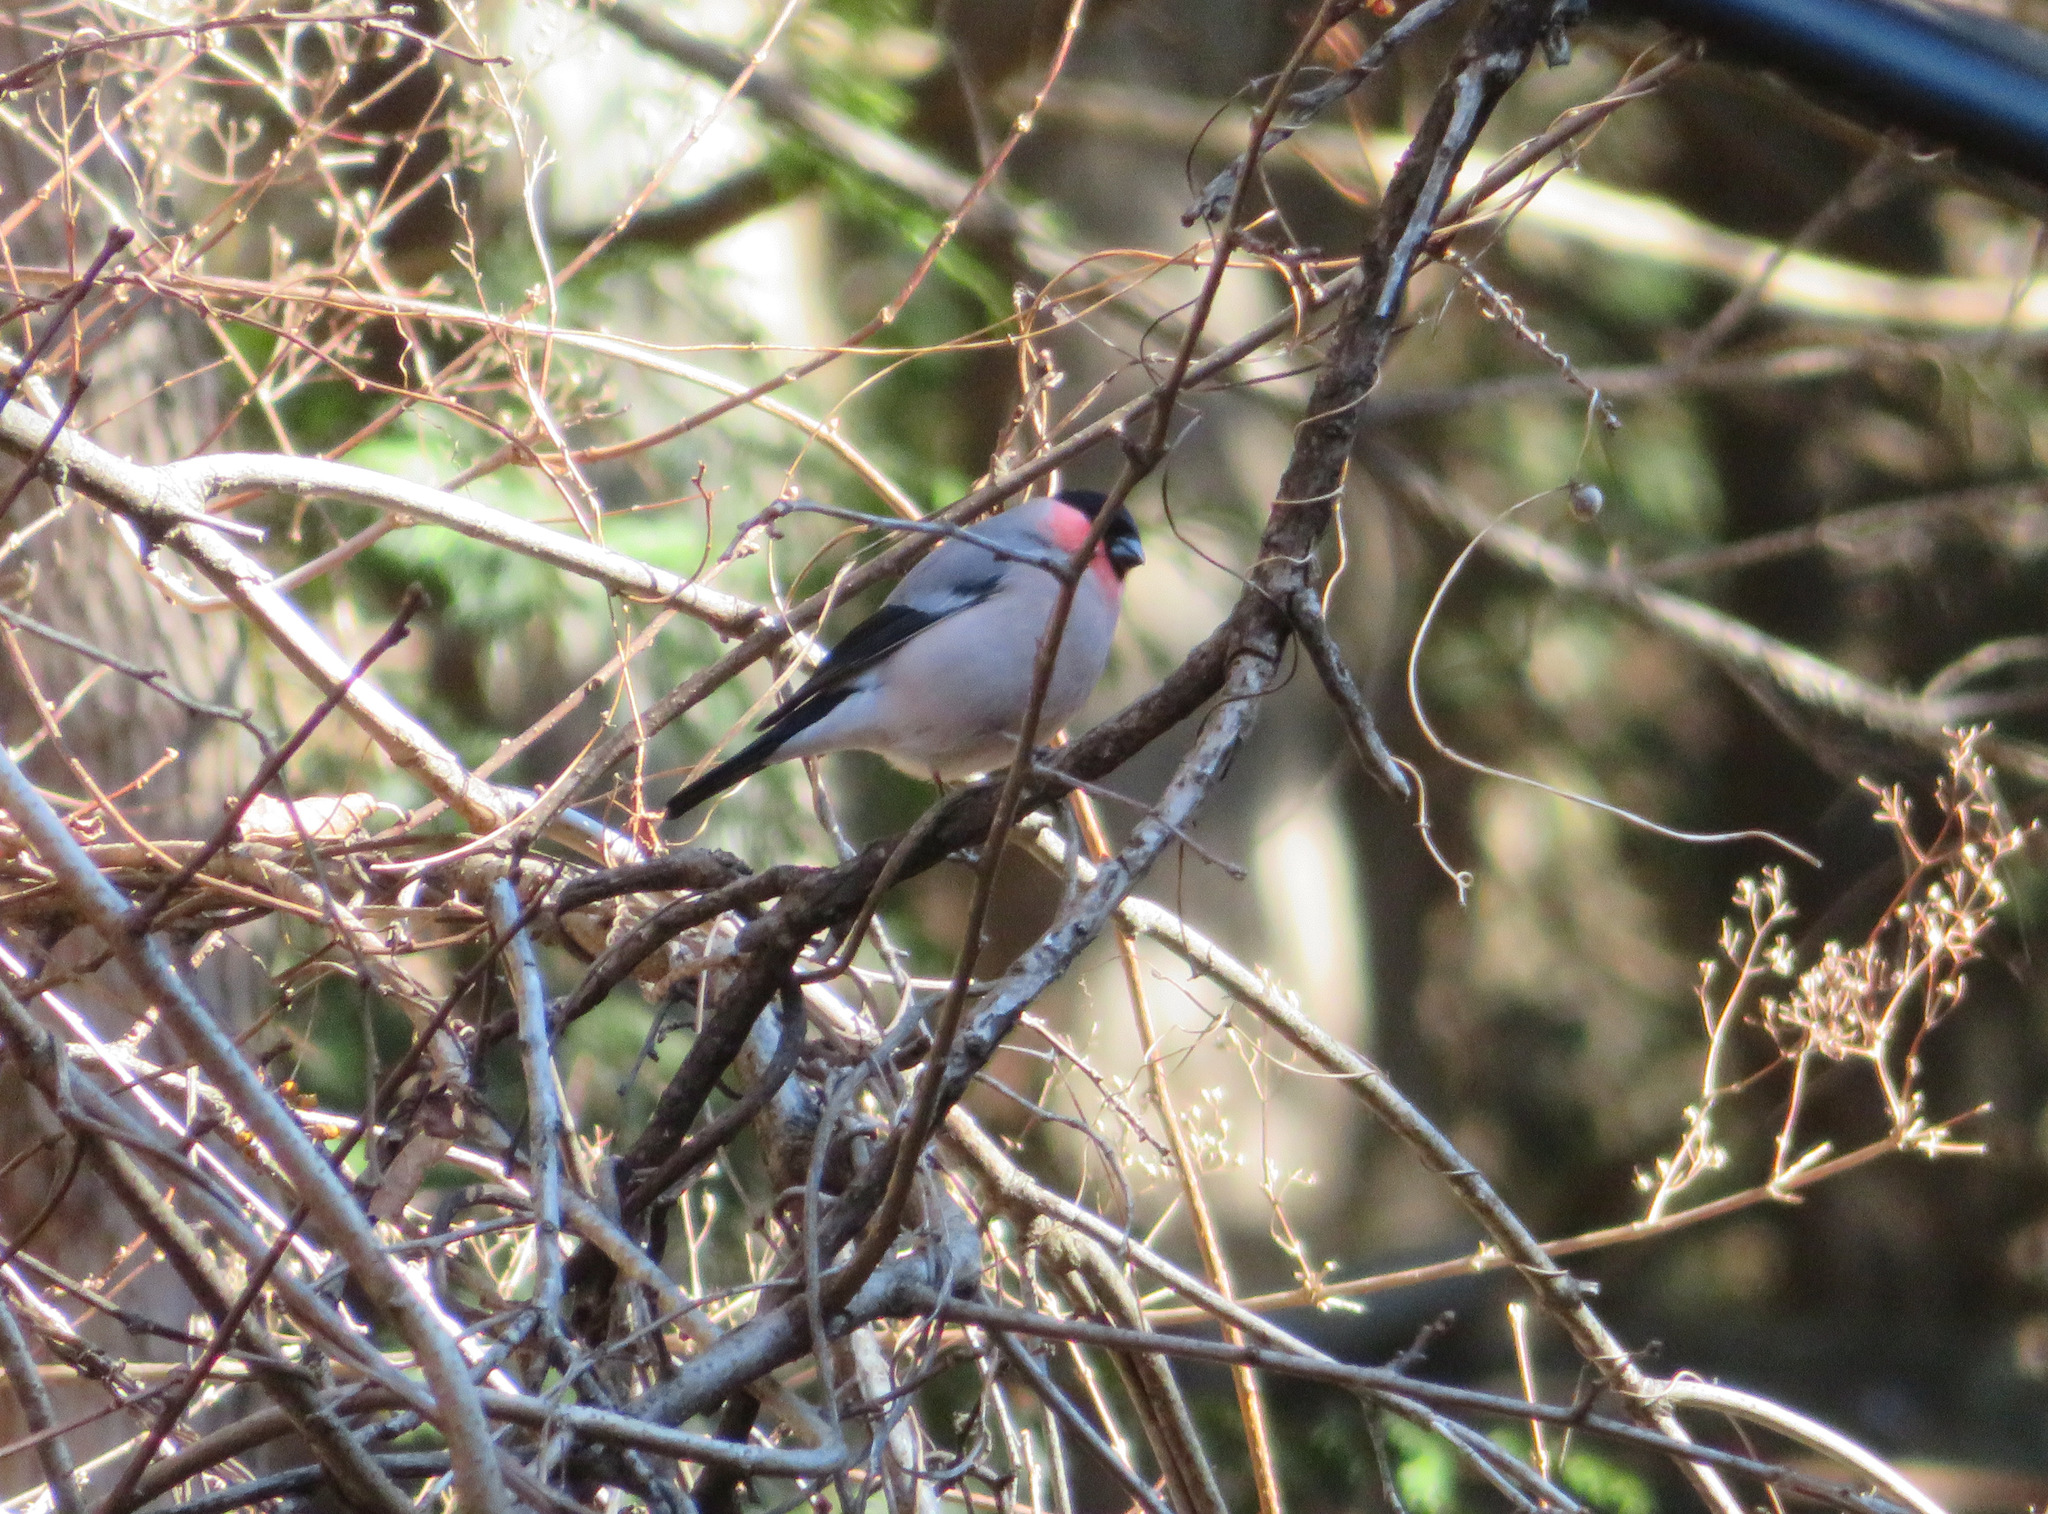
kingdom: Animalia
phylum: Chordata
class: Aves
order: Passeriformes
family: Fringillidae
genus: Pyrrhula
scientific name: Pyrrhula pyrrhula
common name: Eurasian bullfinch
